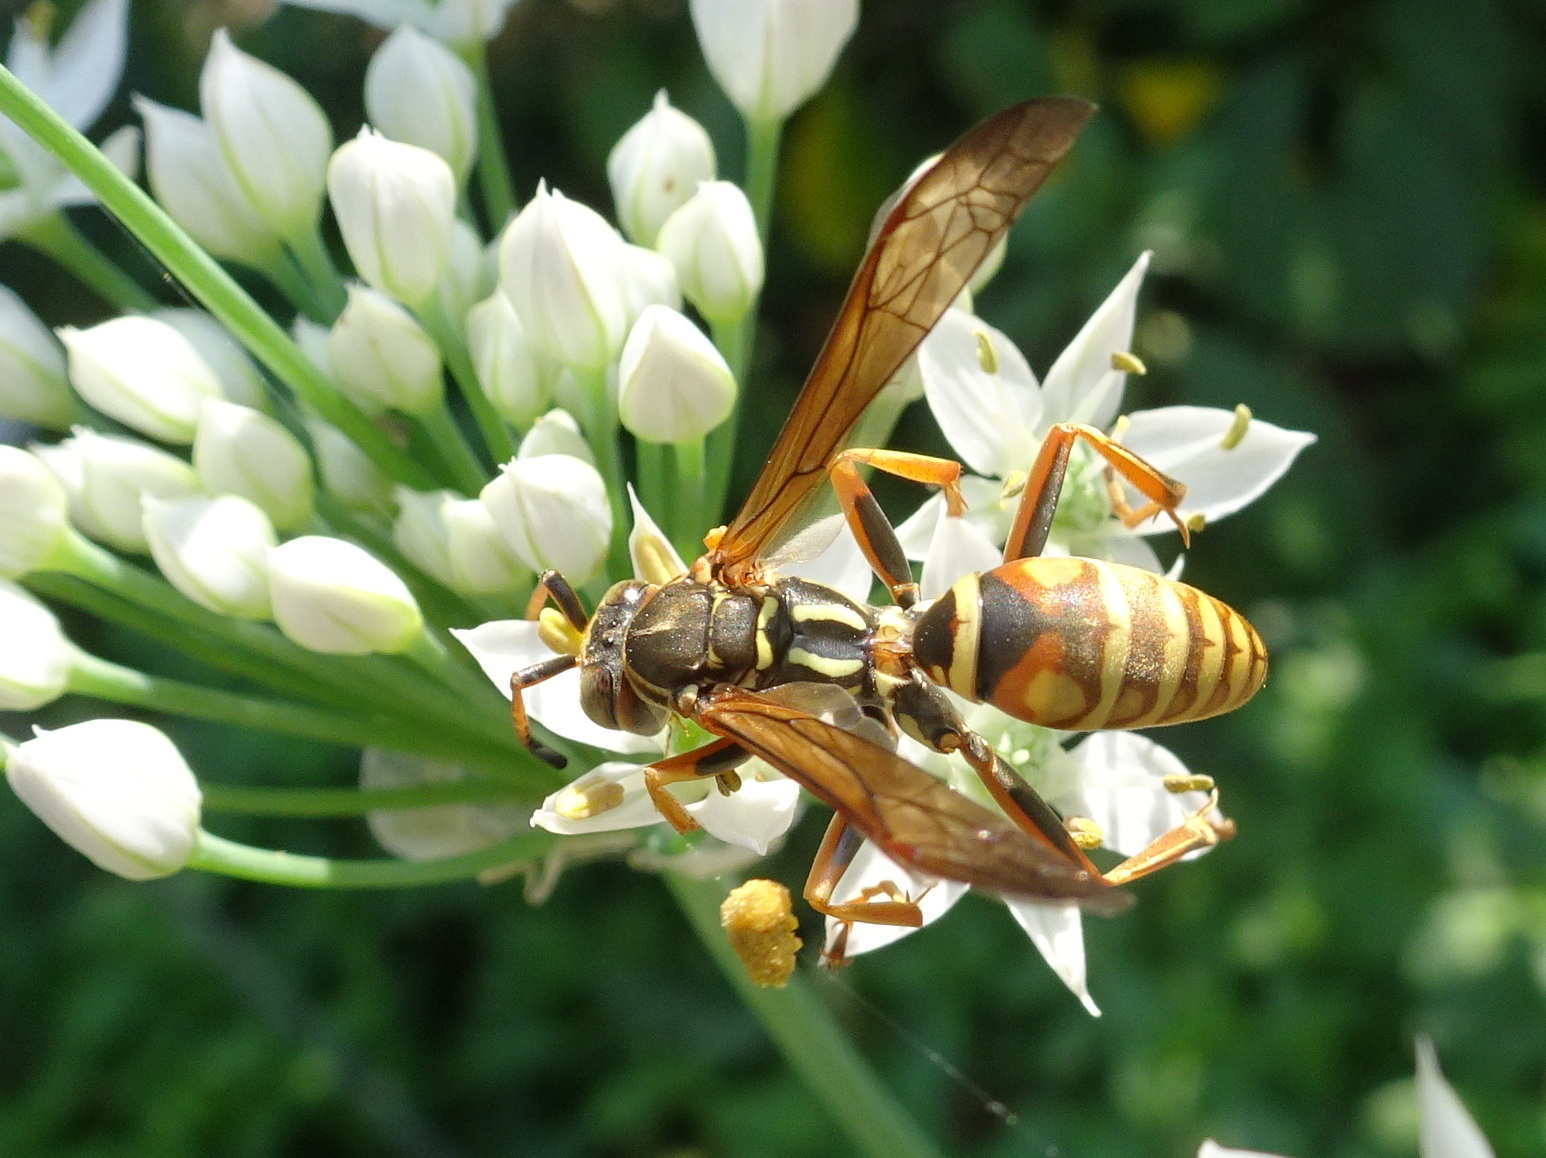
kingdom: Animalia
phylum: Arthropoda
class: Insecta
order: Hymenoptera
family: Eumenidae
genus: Polistes
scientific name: Polistes fuscatus
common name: Dark paper wasp
